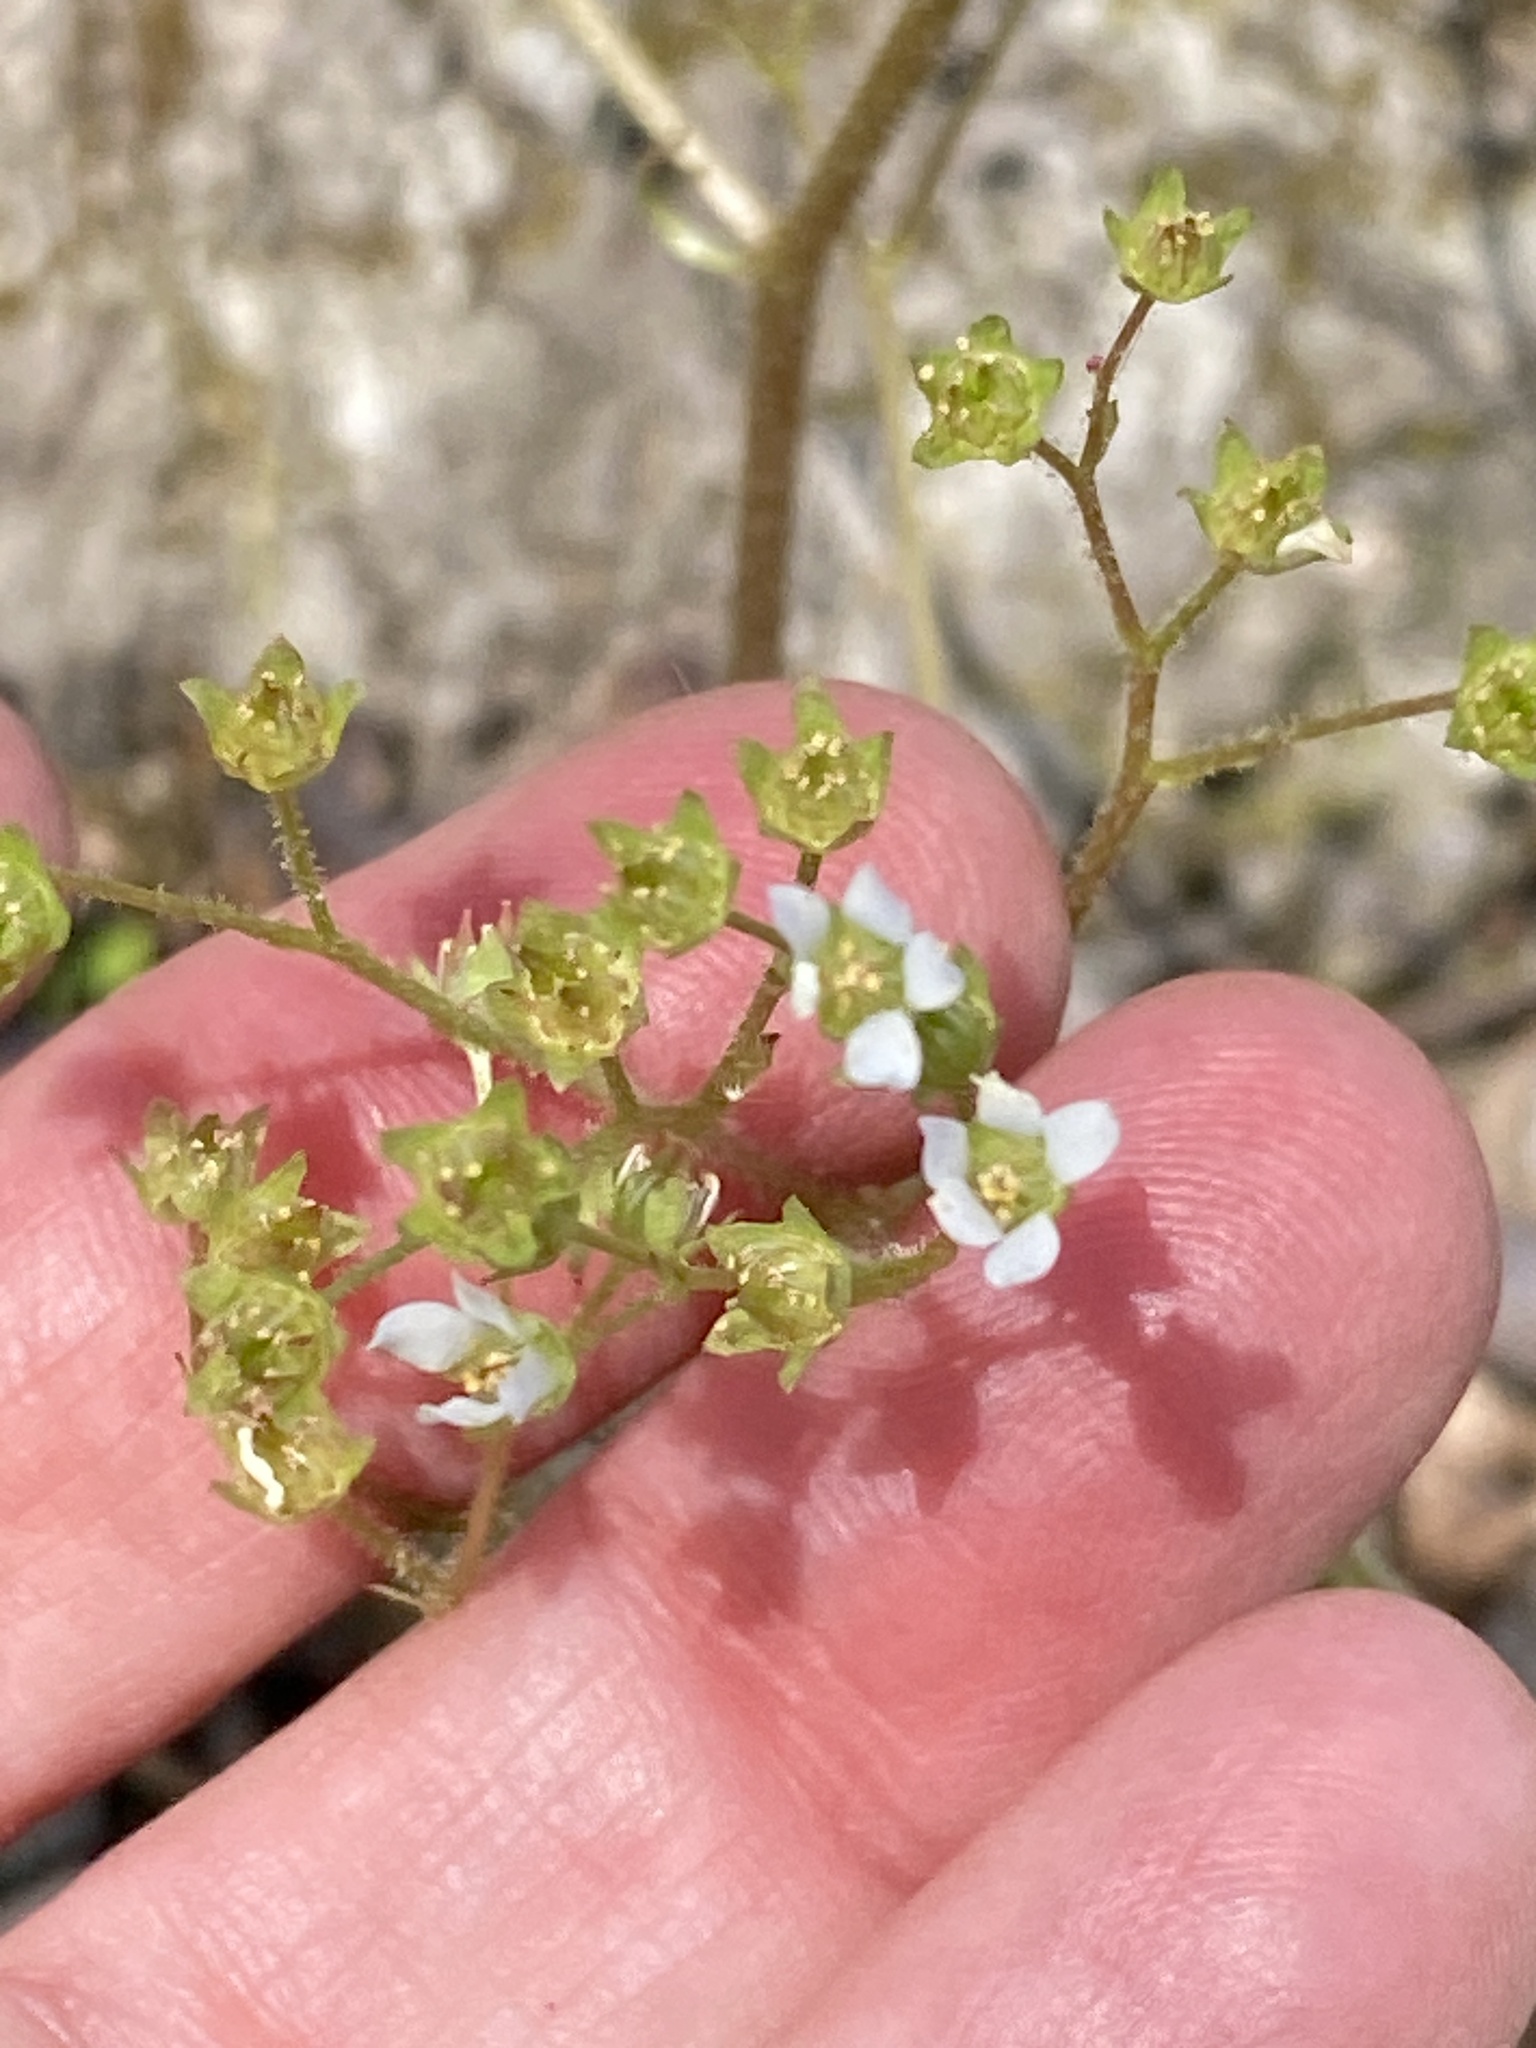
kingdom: Plantae
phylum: Tracheophyta
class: Magnoliopsida
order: Saxifragales
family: Saxifragaceae
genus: Micranthes
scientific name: Micranthes virginiensis
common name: Early saxifrage
